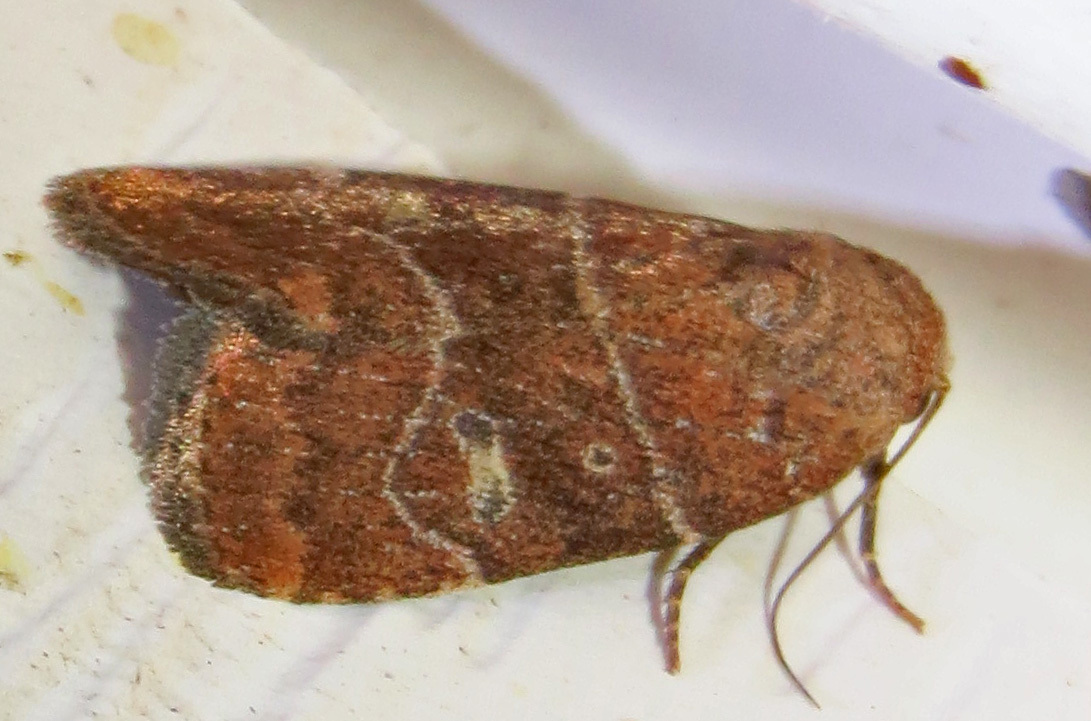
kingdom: Animalia
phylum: Arthropoda
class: Insecta
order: Lepidoptera
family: Noctuidae
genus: Elaphria
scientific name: Elaphria grata
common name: Grateful midget moth
